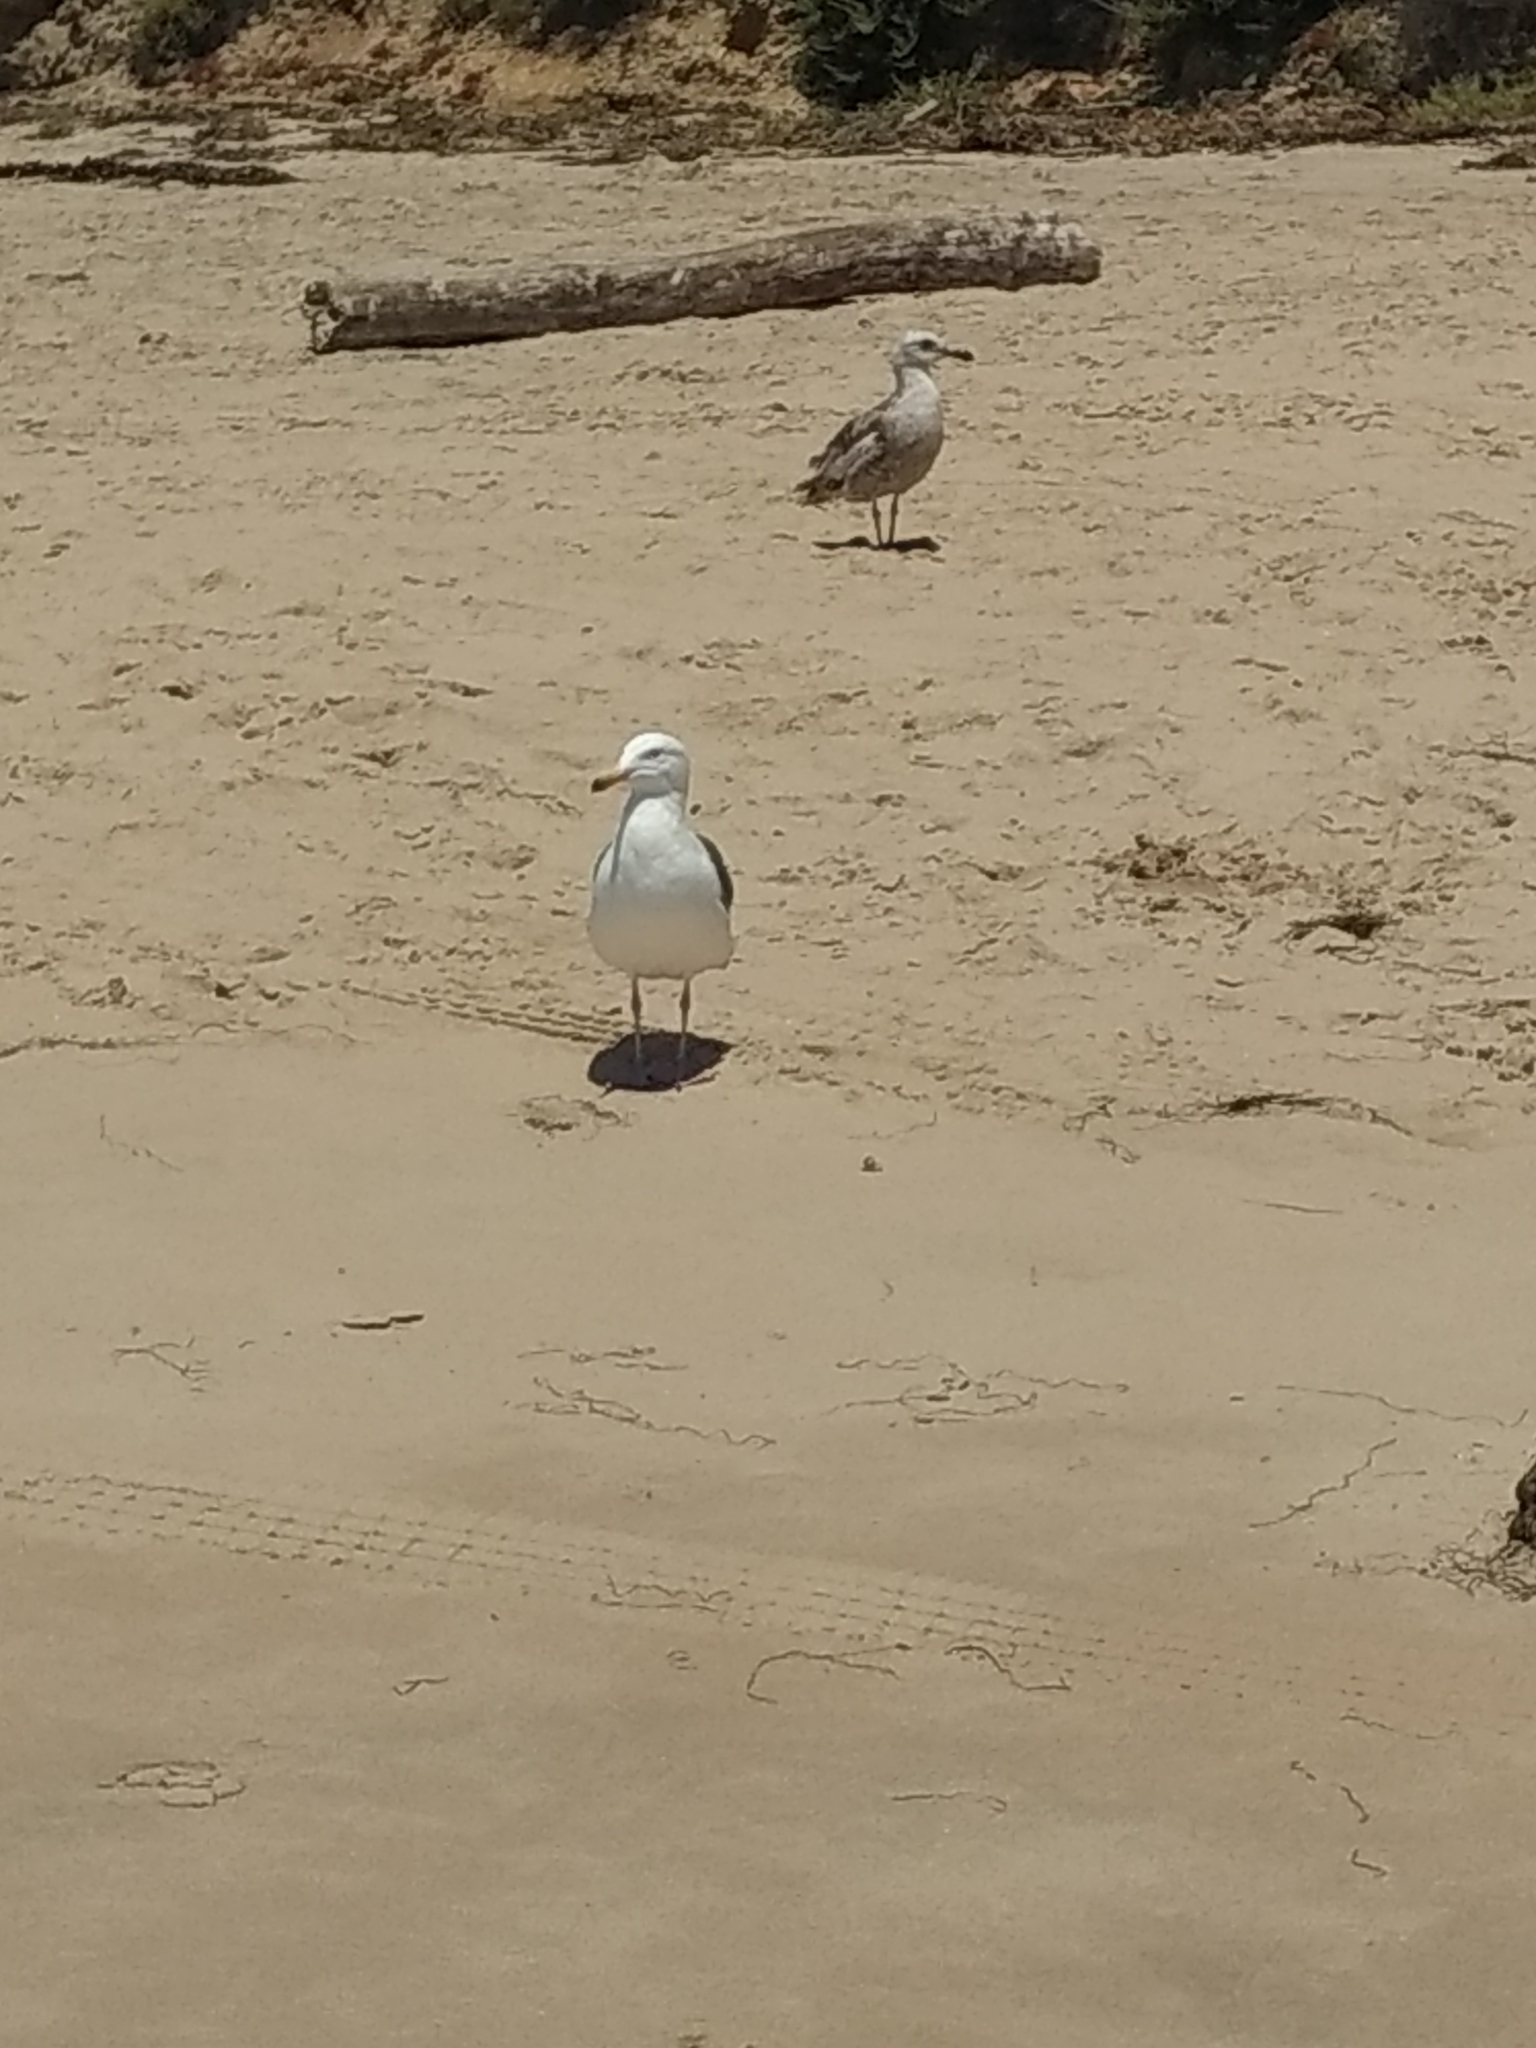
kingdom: Animalia
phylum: Chordata
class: Aves
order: Charadriiformes
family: Laridae
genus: Larus
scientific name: Larus occidentalis
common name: Western gull
